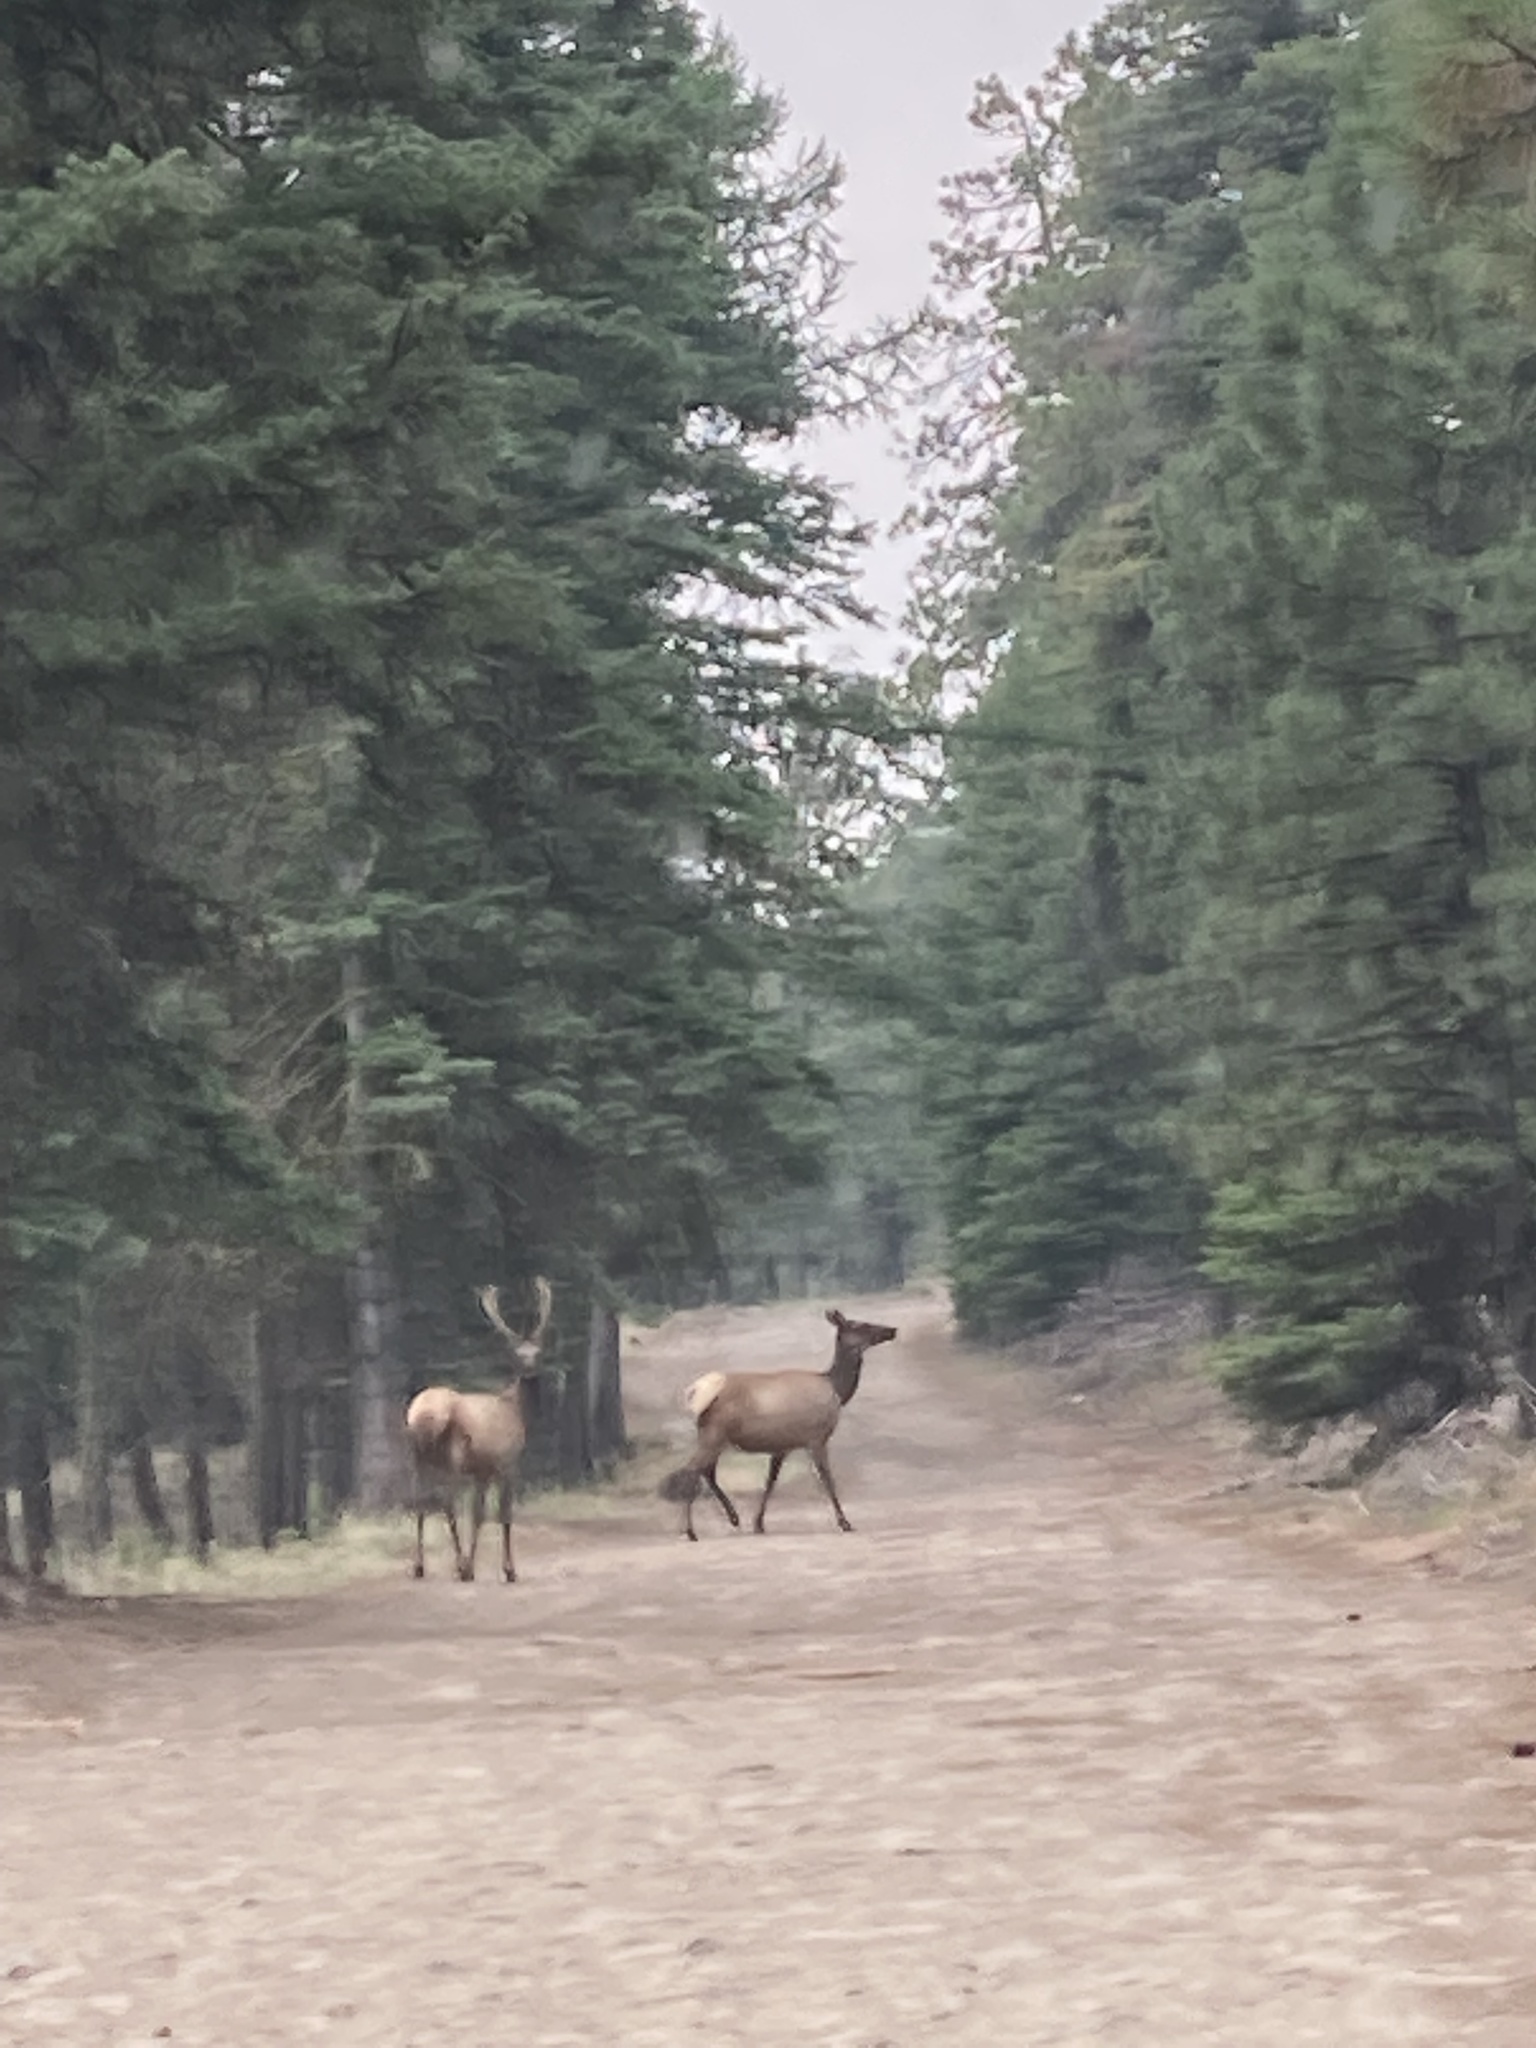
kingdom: Animalia
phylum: Chordata
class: Mammalia
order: Artiodactyla
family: Cervidae
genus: Cervus
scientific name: Cervus elaphus
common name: Red deer
